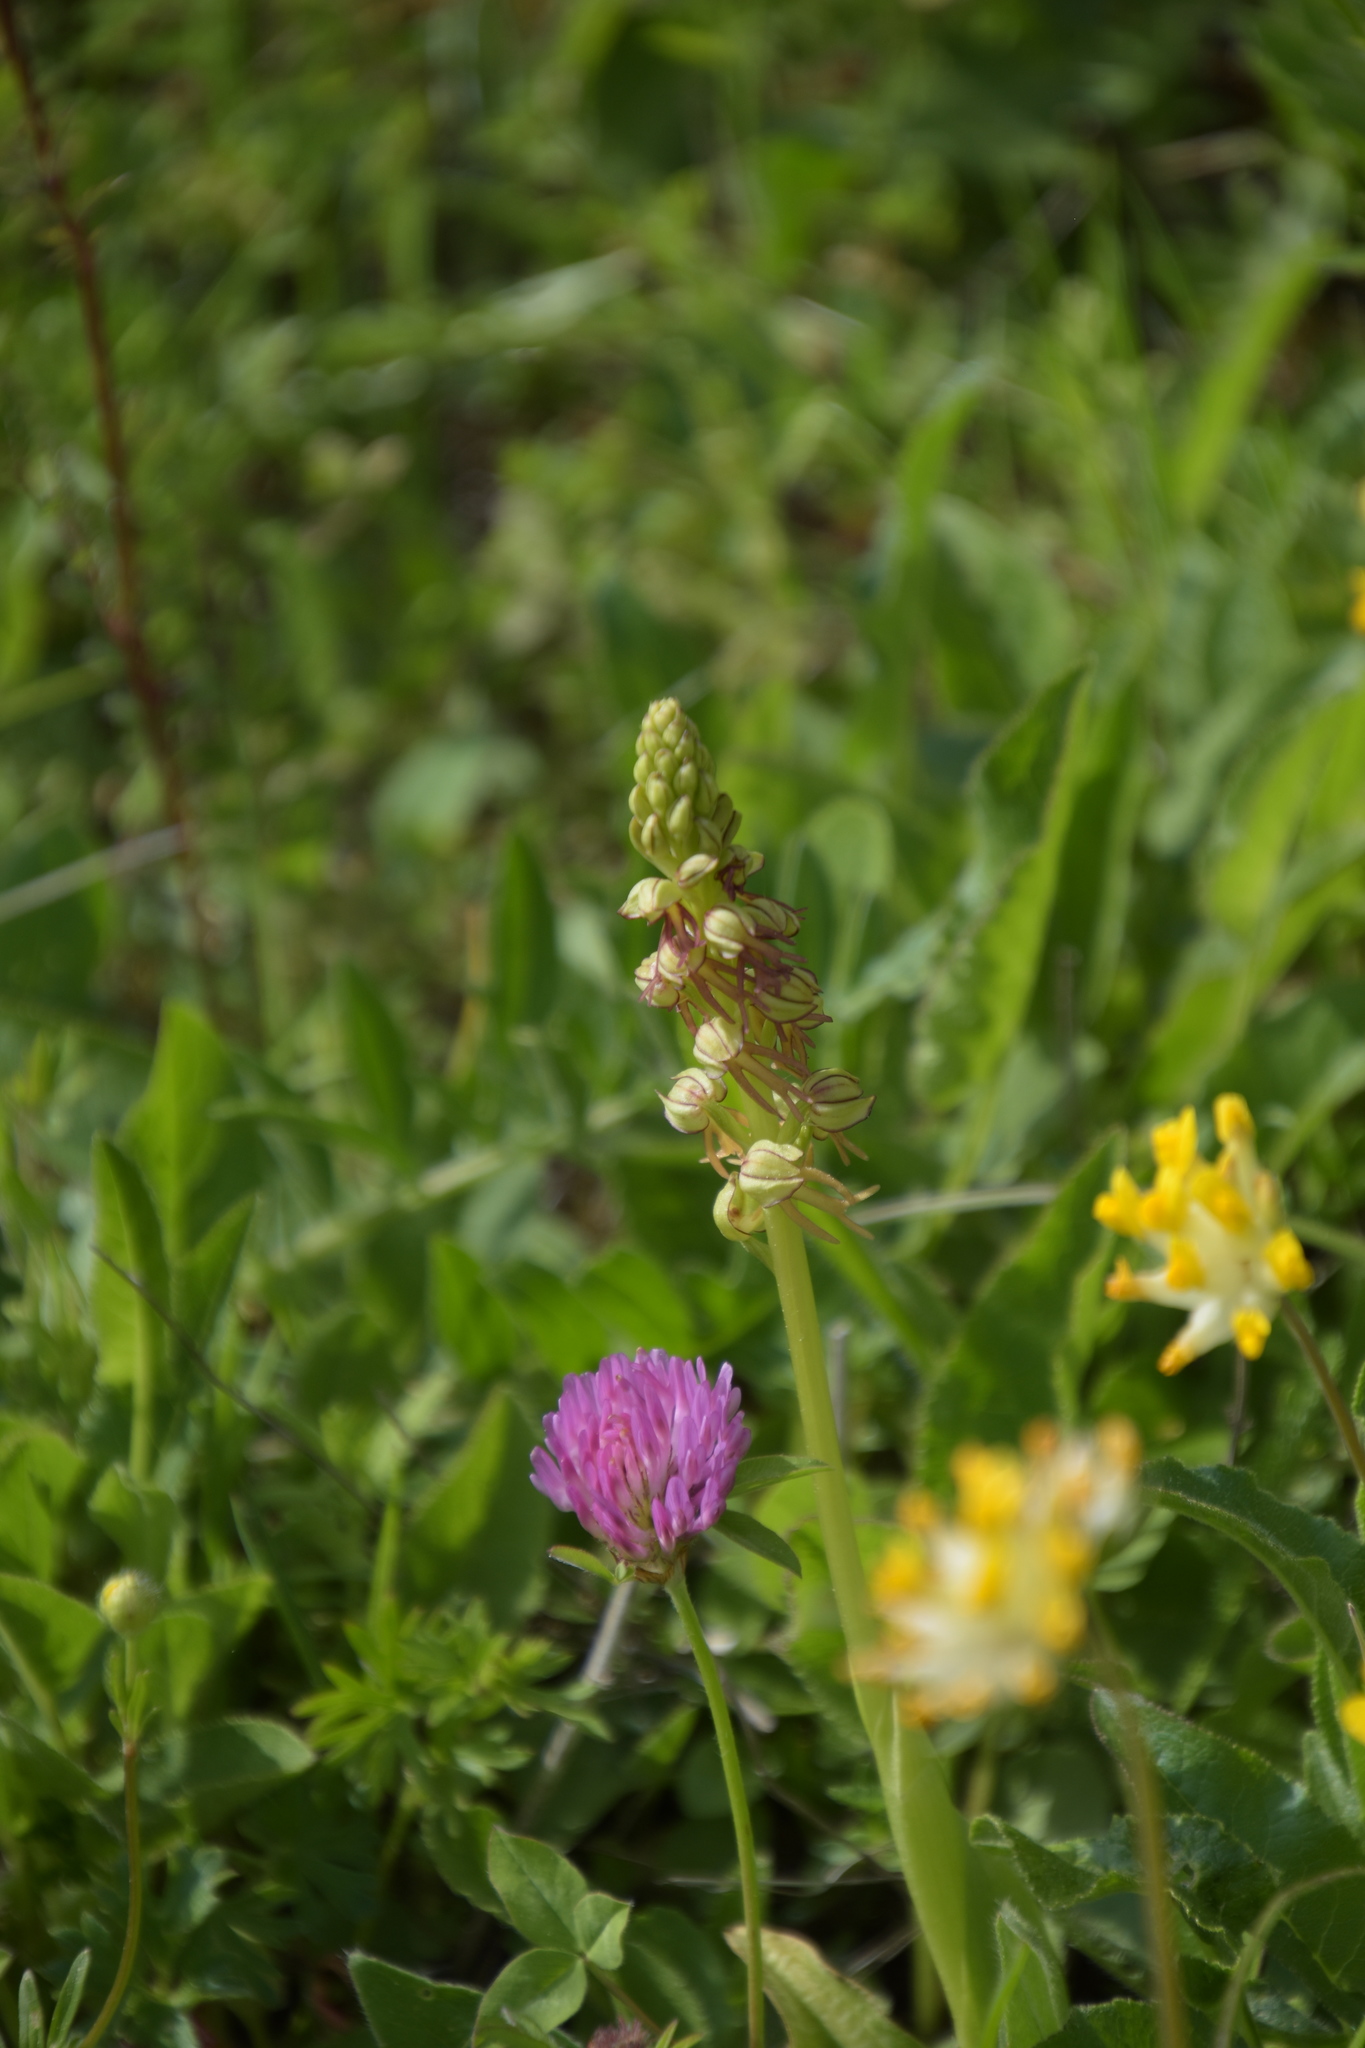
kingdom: Plantae
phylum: Tracheophyta
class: Liliopsida
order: Asparagales
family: Orchidaceae
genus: Orchis
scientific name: Orchis anthropophora
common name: Man orchid
